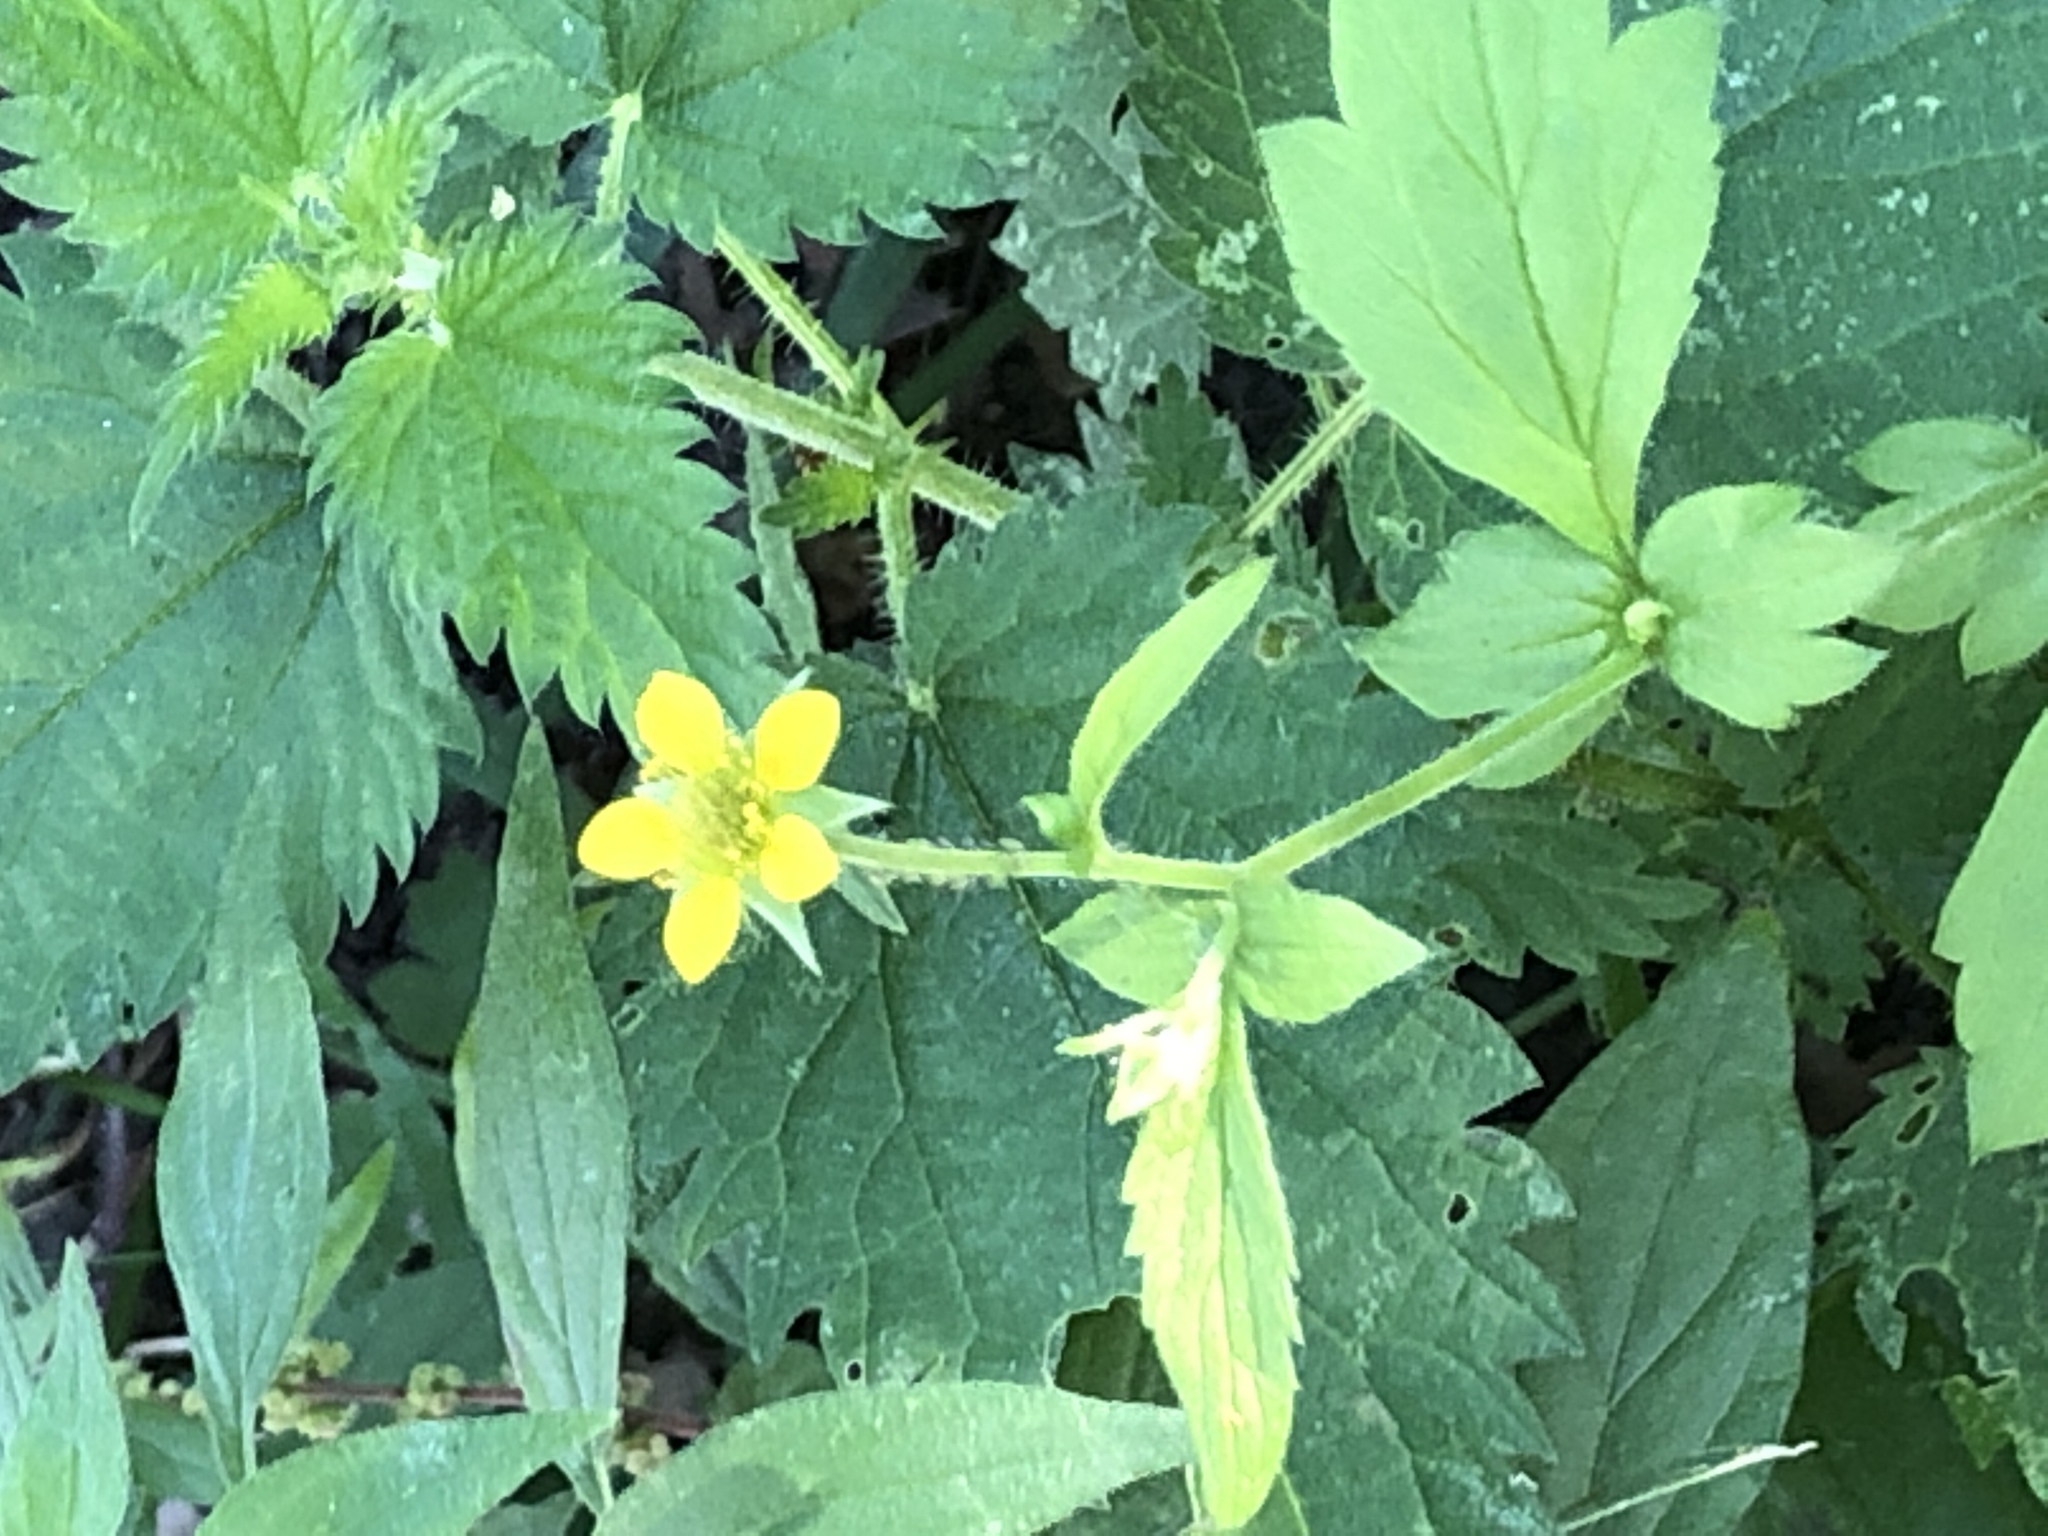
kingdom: Plantae
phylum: Tracheophyta
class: Magnoliopsida
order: Rosales
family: Rosaceae
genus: Geum
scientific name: Geum urbanum
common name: Wood avens
